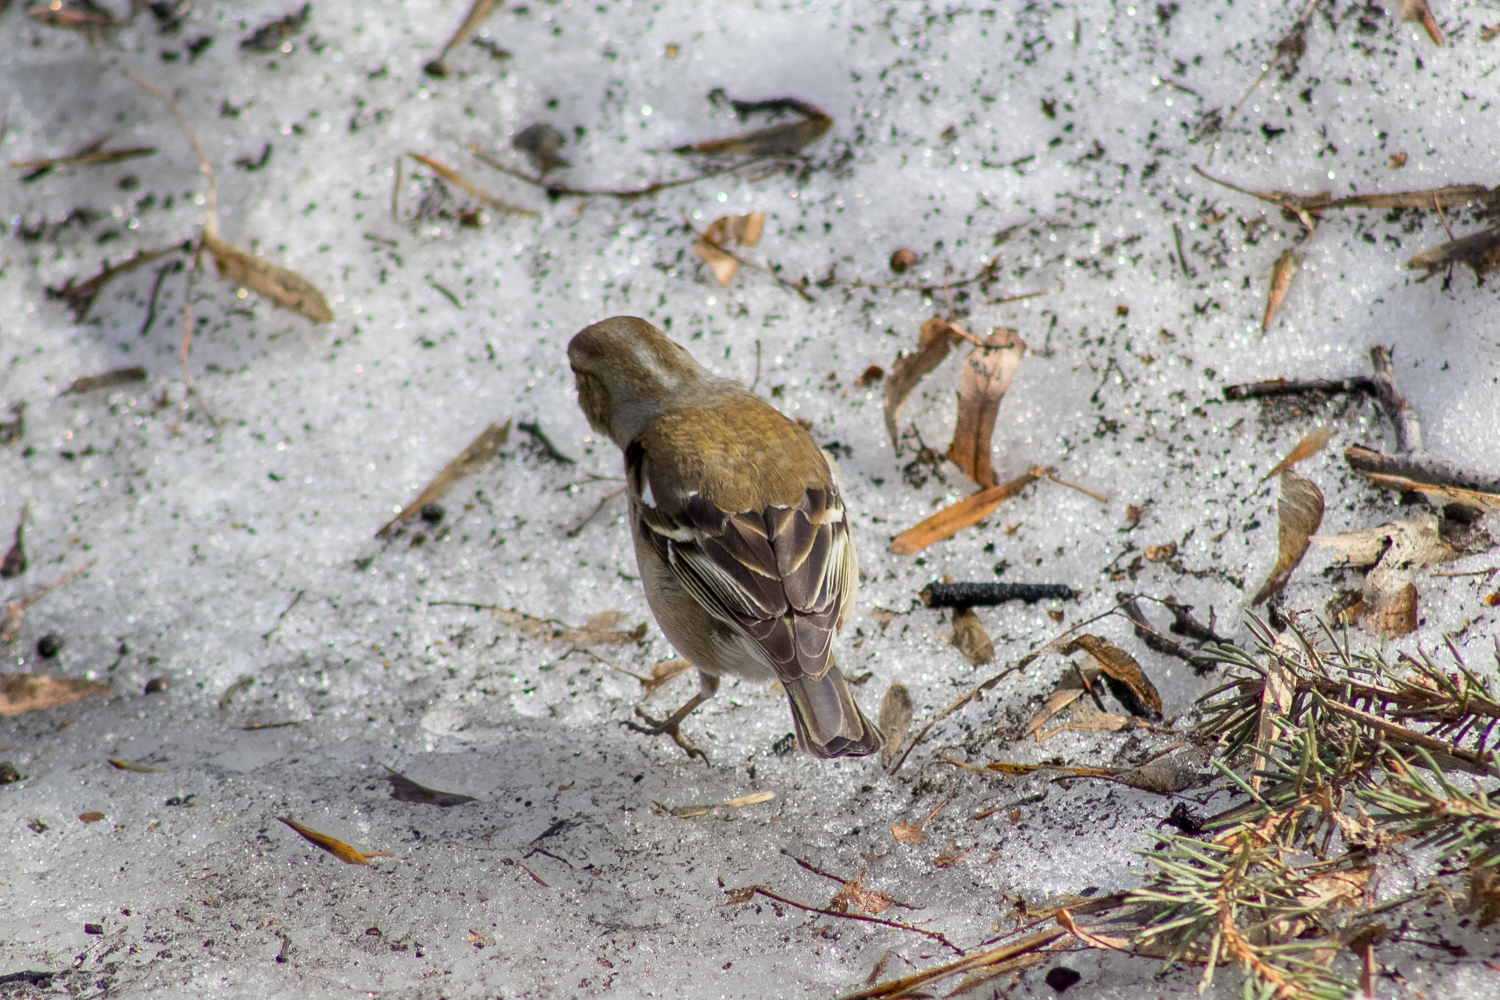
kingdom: Animalia
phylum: Chordata
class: Aves
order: Passeriformes
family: Fringillidae
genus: Fringilla
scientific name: Fringilla coelebs
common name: Common chaffinch
